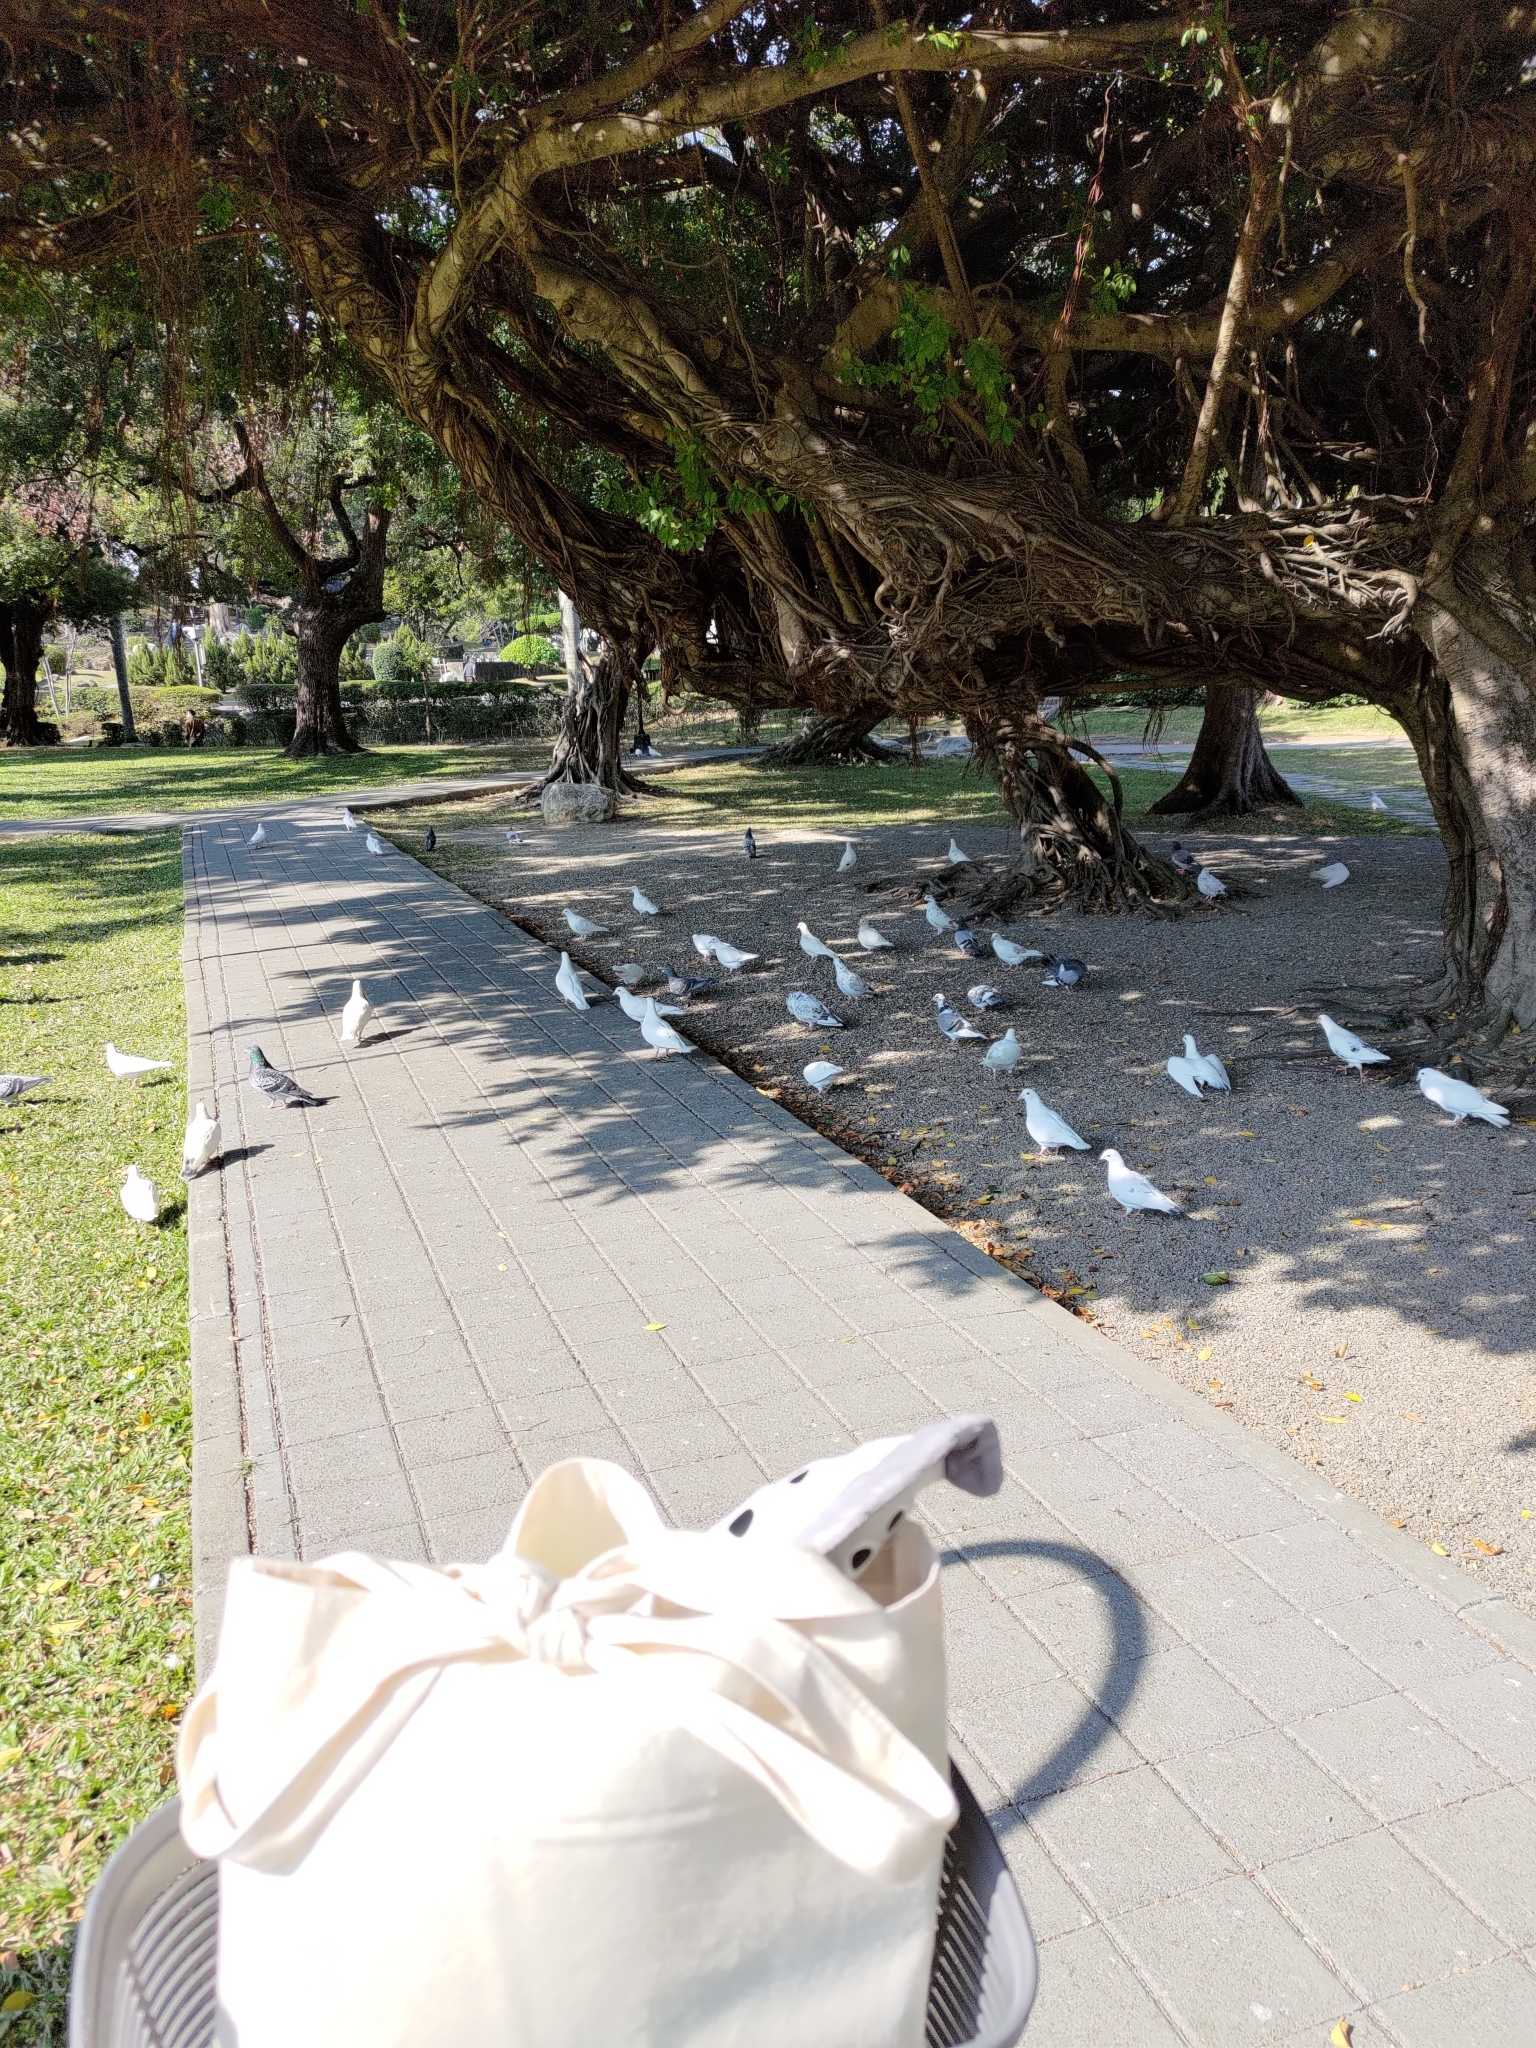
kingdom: Animalia
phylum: Chordata
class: Aves
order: Columbiformes
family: Columbidae
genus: Columba
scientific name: Columba livia
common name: Rock pigeon
